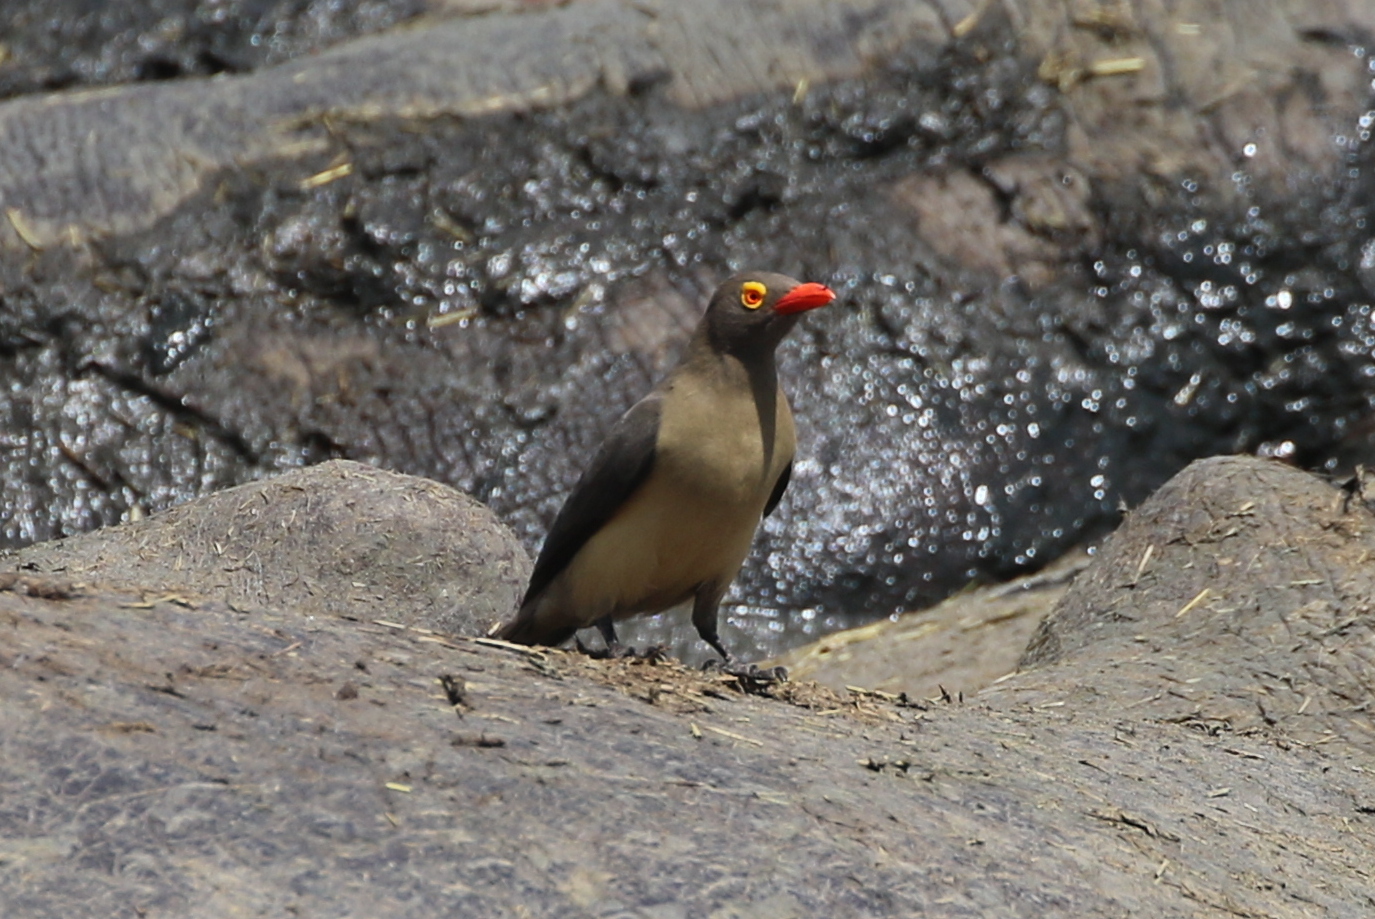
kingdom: Animalia
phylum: Chordata
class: Aves
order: Passeriformes
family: Buphagidae
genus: Buphagus
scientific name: Buphagus erythrorhynchus
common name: Red-billed oxpecker
